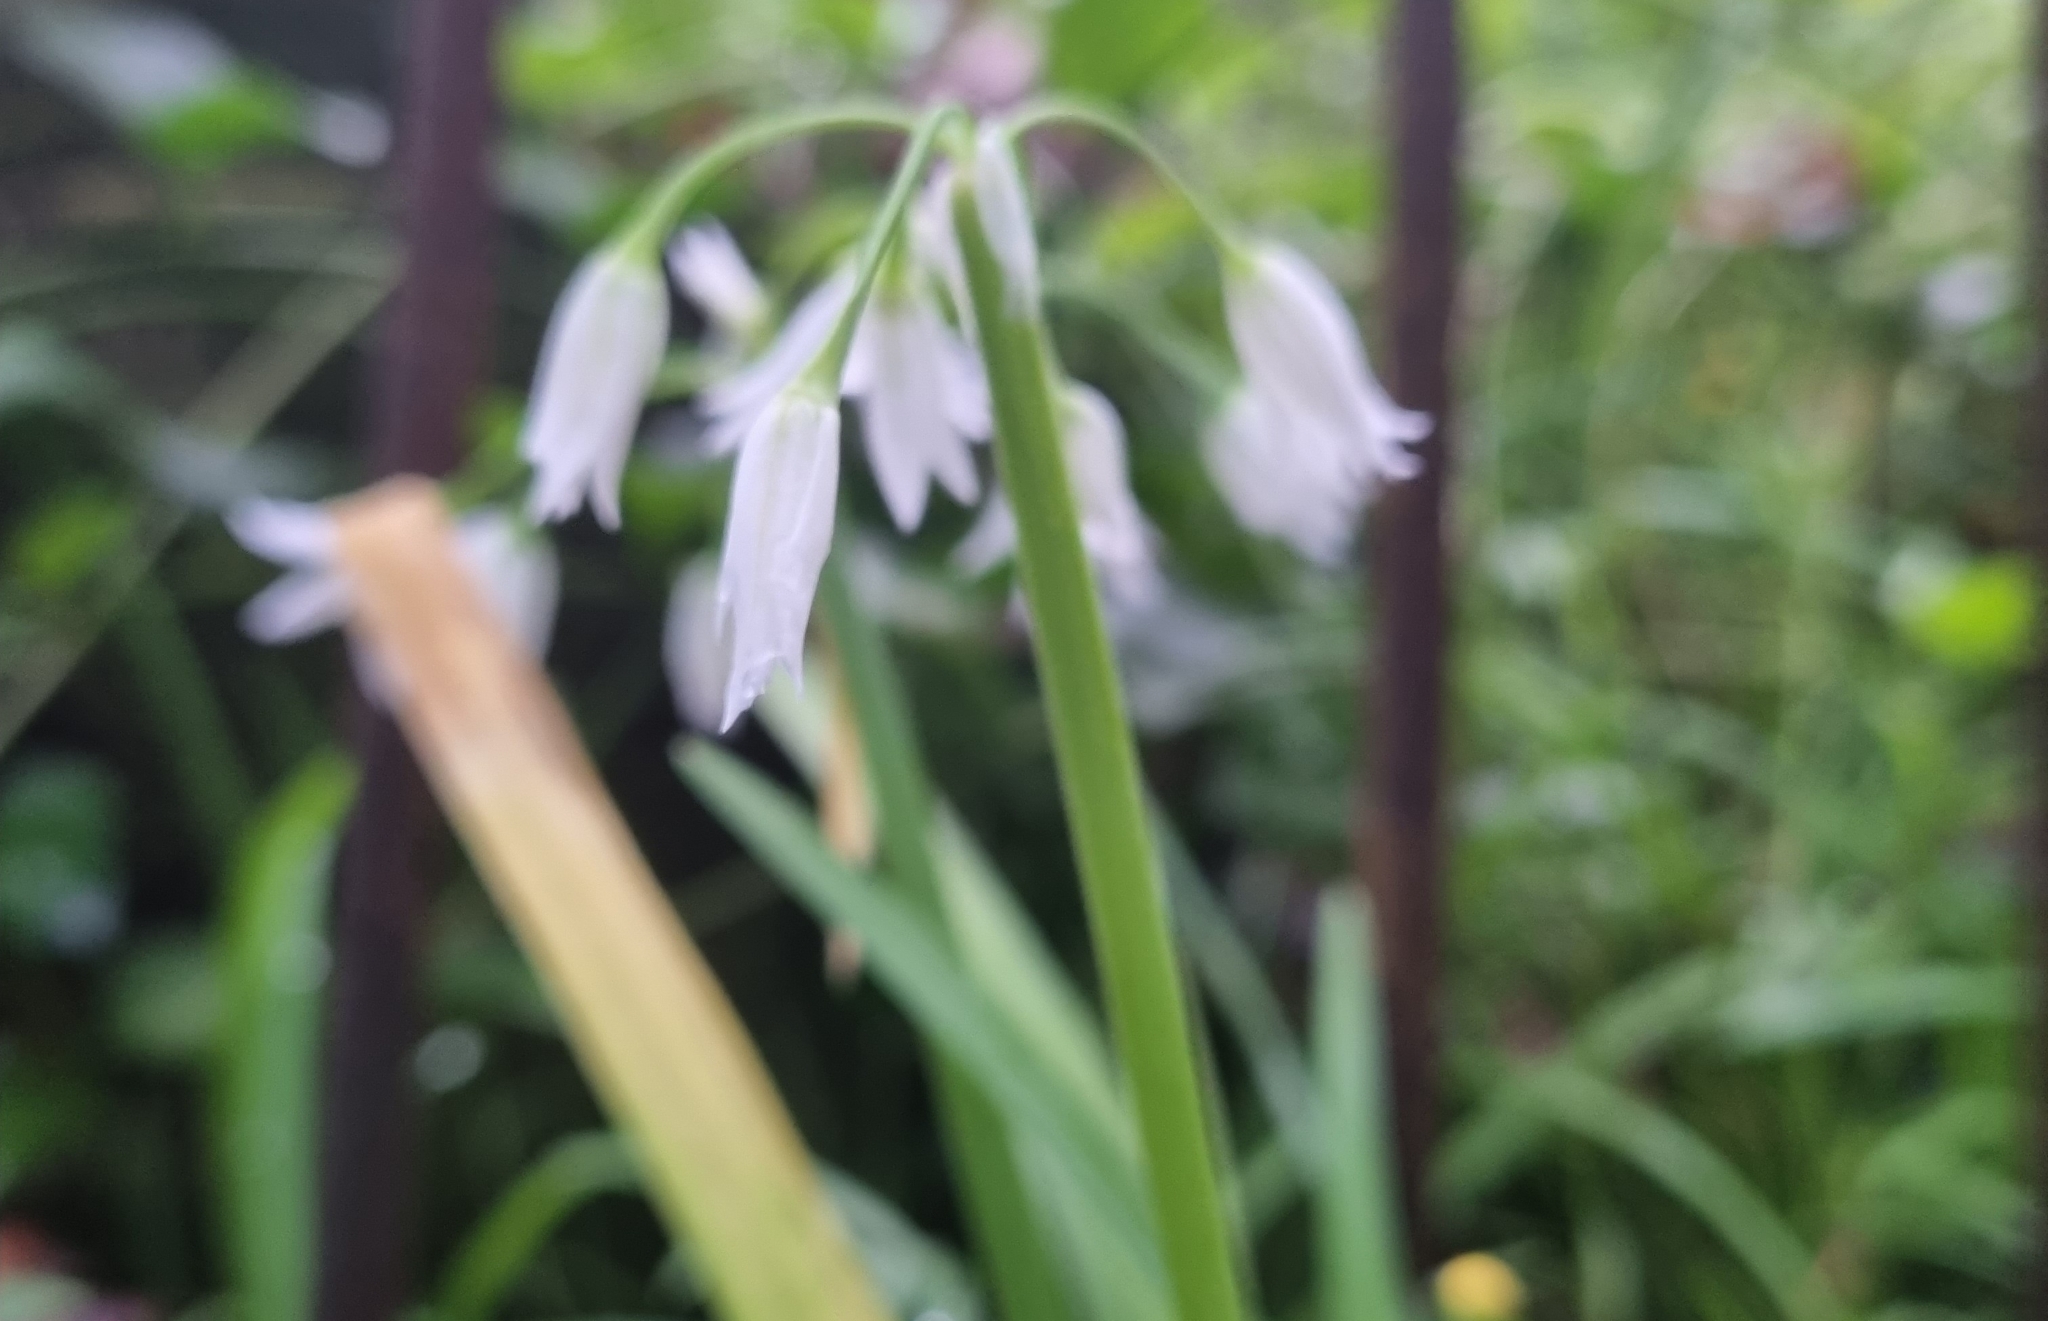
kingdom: Plantae
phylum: Tracheophyta
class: Liliopsida
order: Asparagales
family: Amaryllidaceae
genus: Allium
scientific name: Allium triquetrum
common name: Three-cornered garlic
